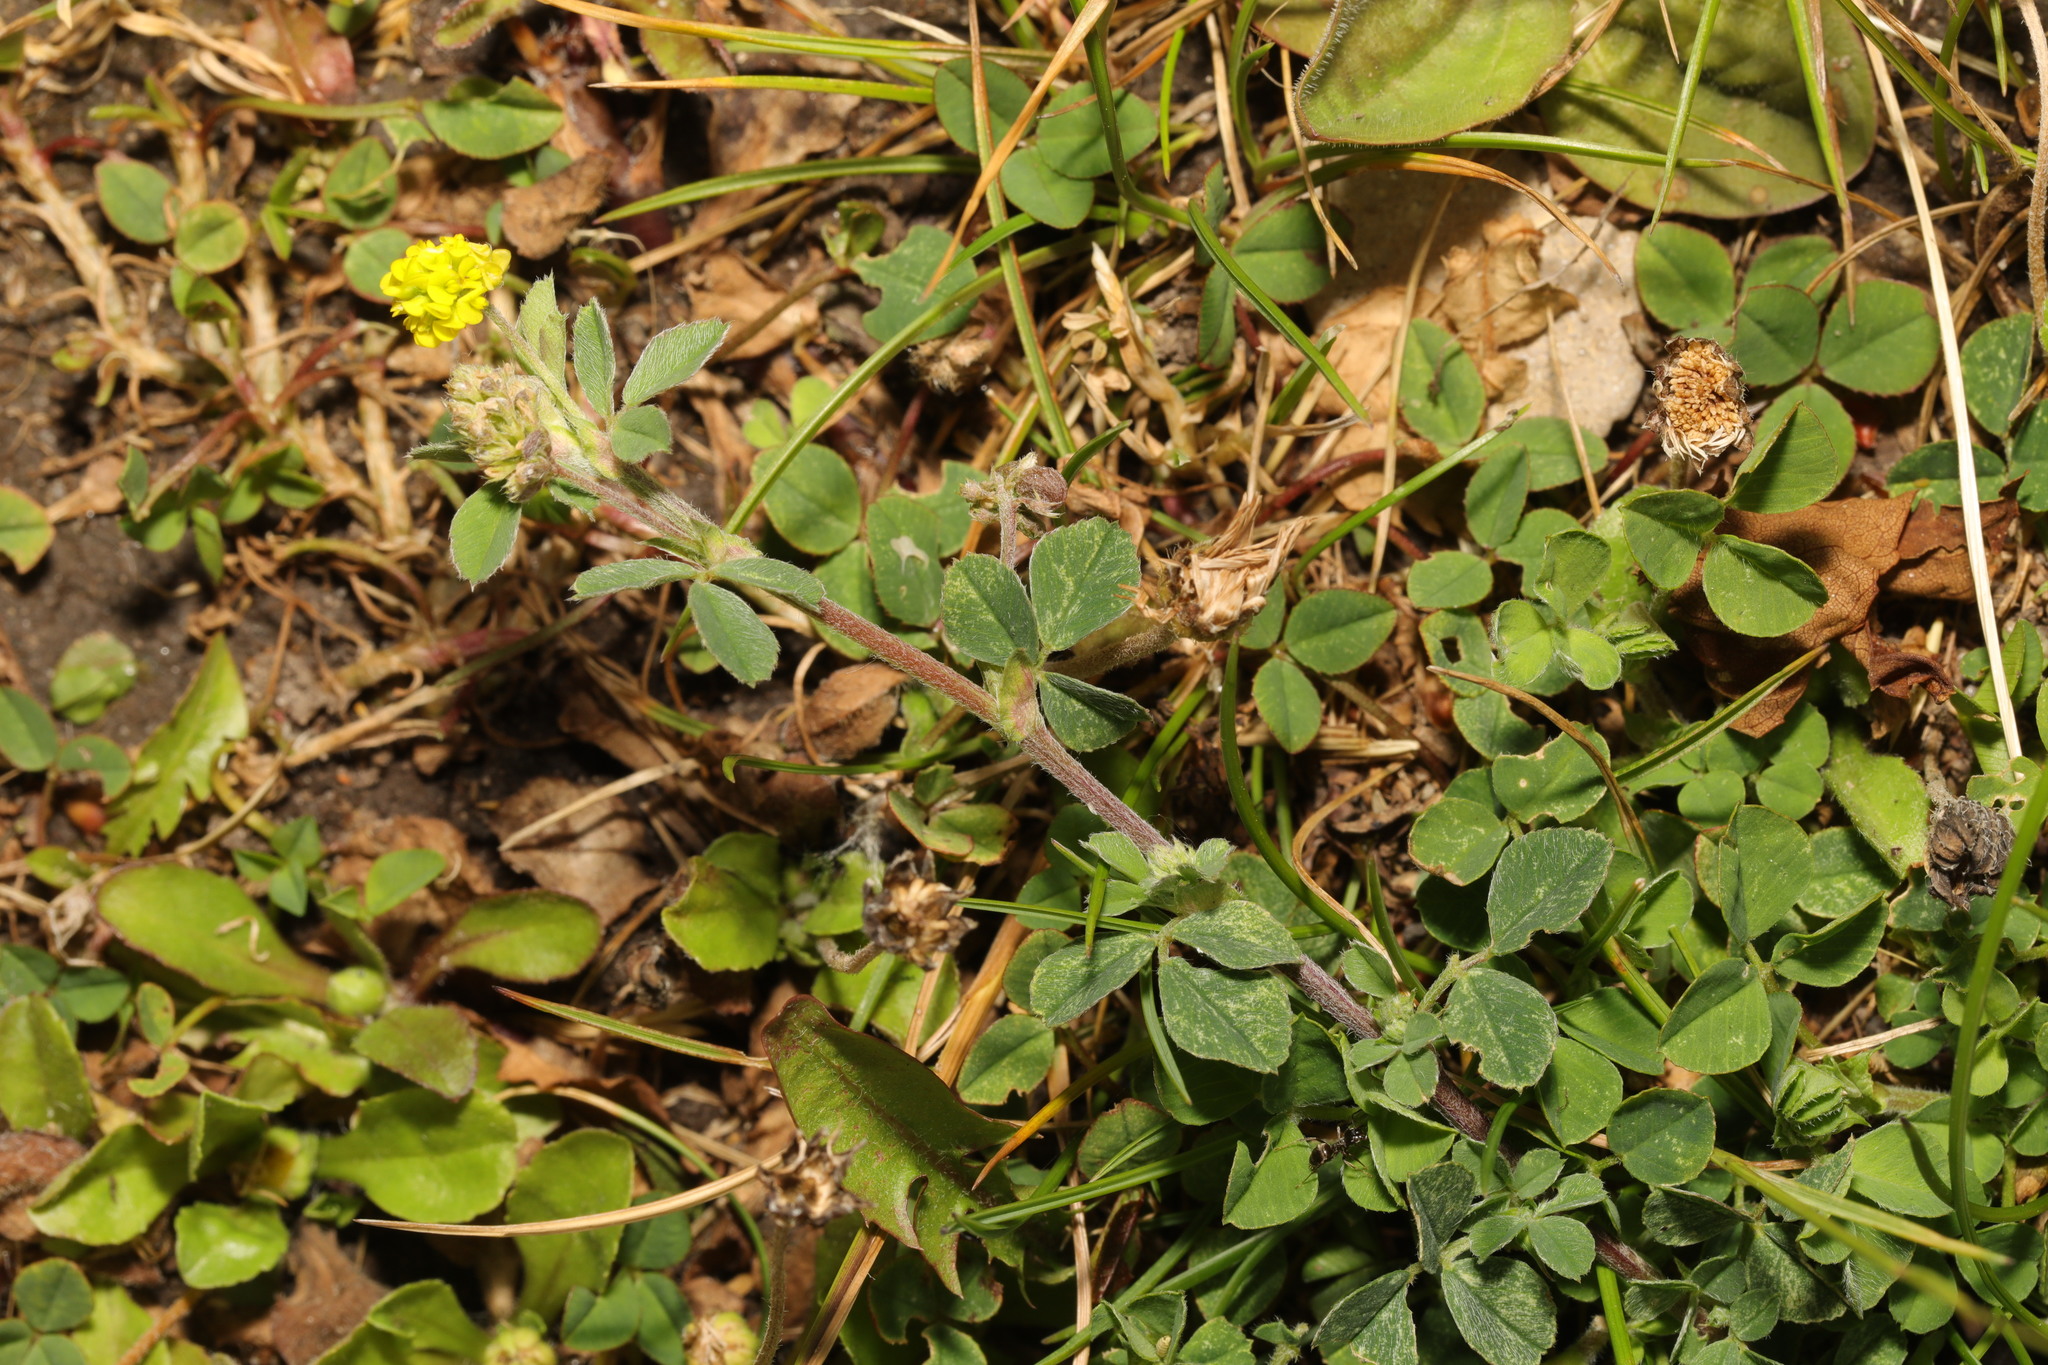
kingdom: Plantae
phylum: Tracheophyta
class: Magnoliopsida
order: Fabales
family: Fabaceae
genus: Medicago
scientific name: Medicago lupulina
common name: Black medick
